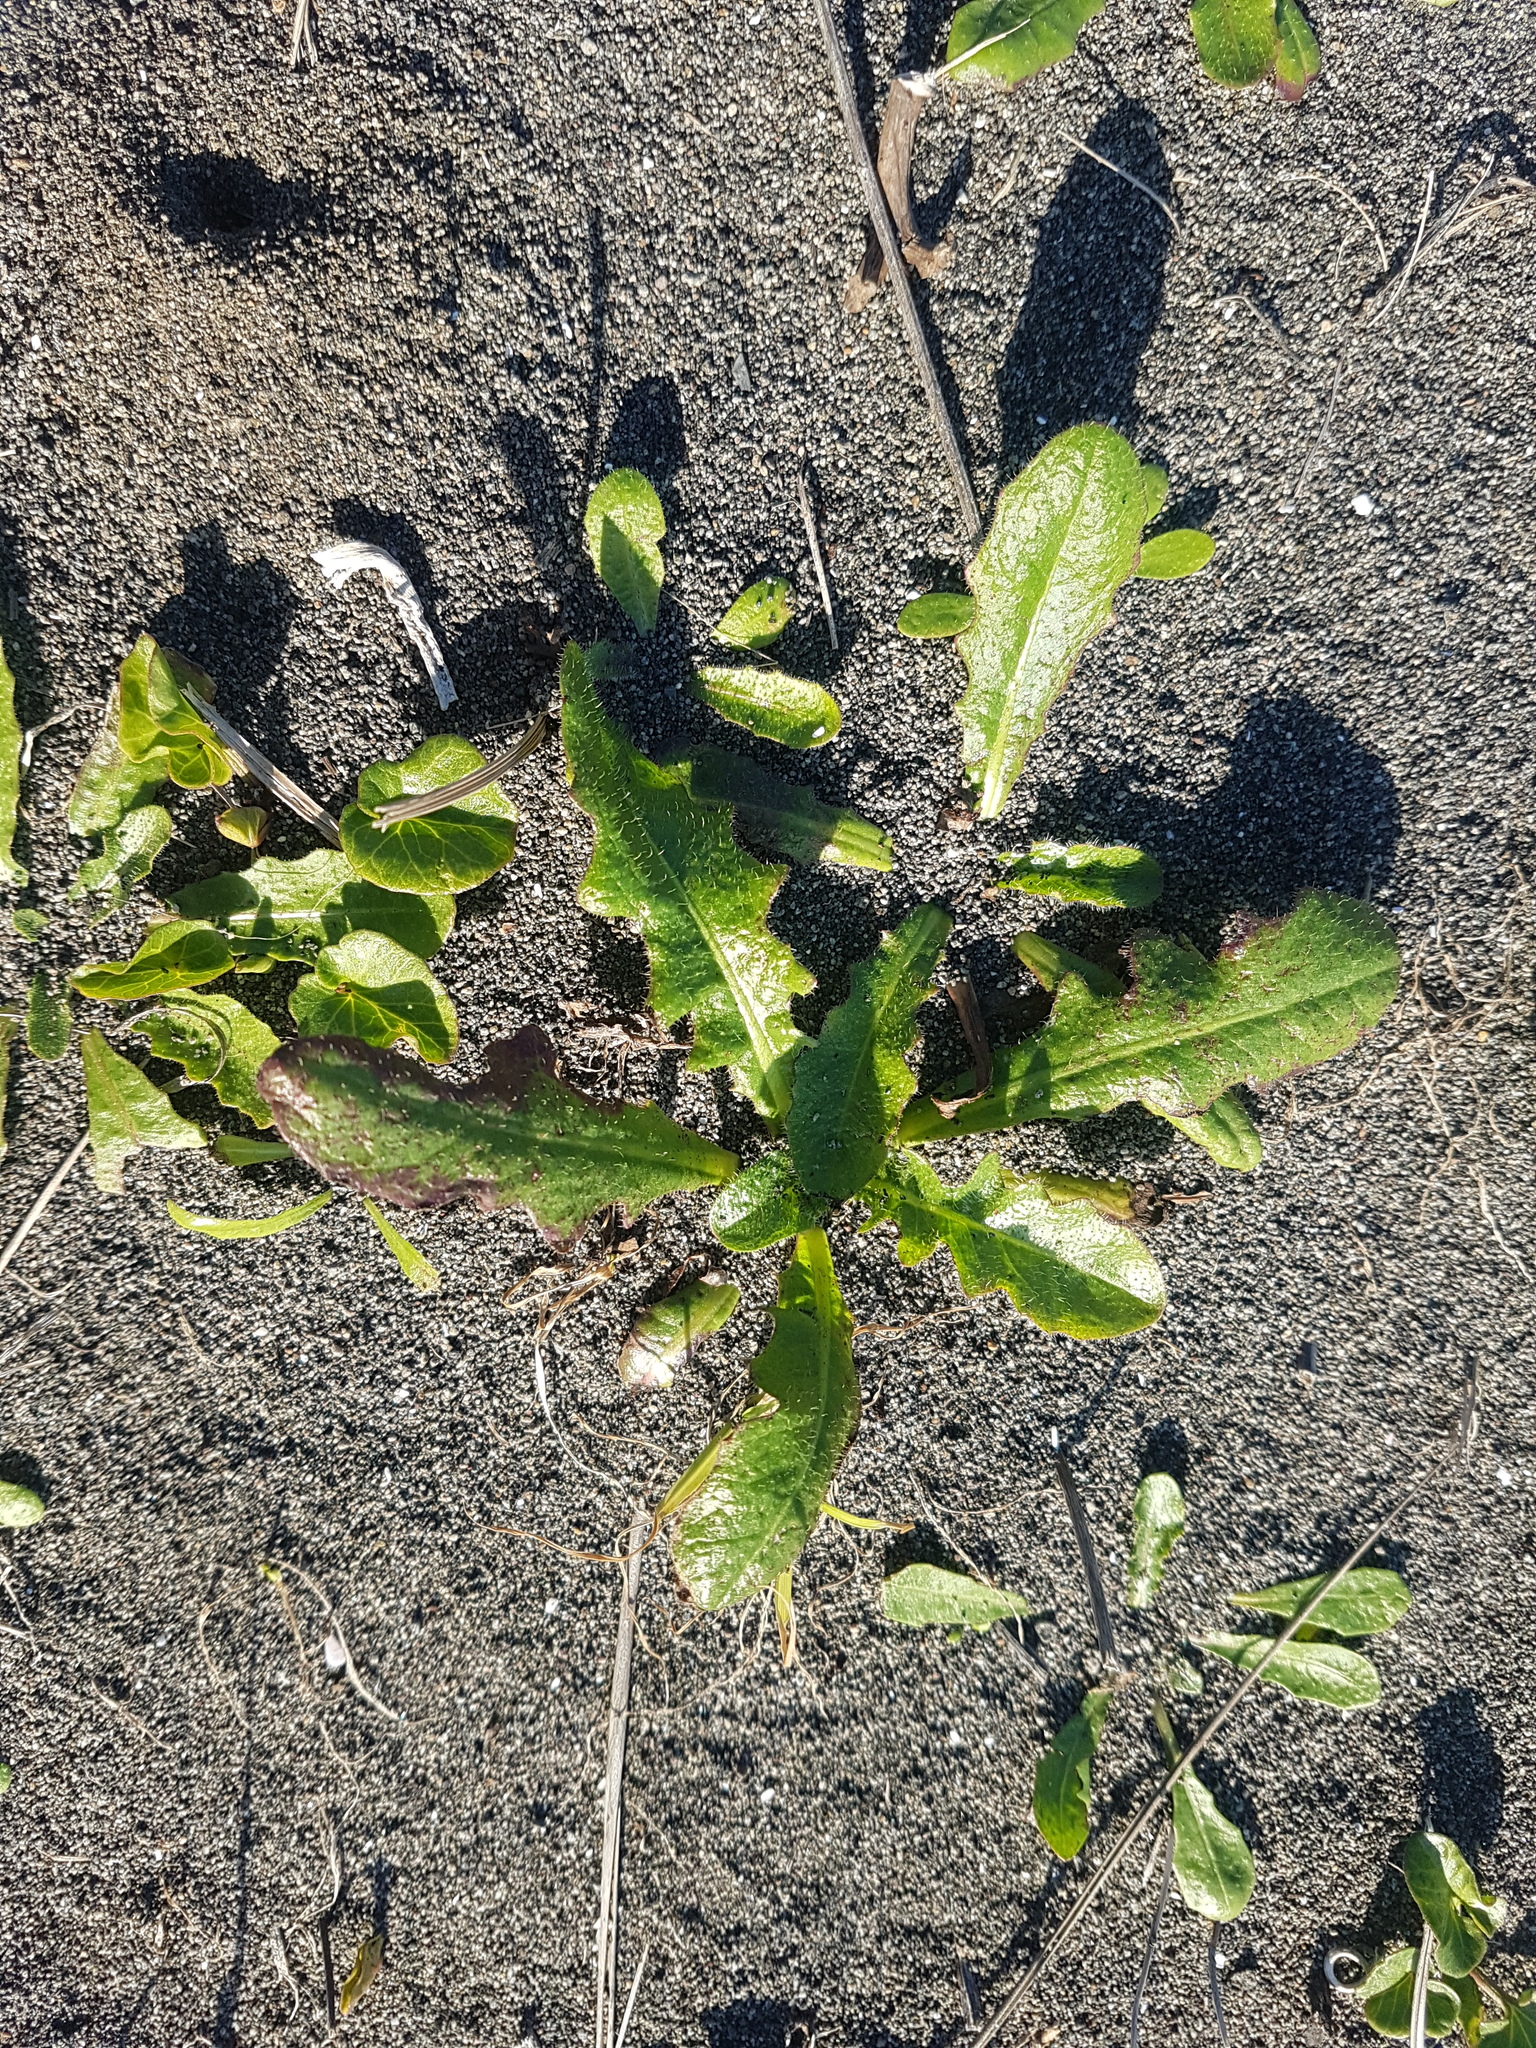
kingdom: Plantae
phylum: Tracheophyta
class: Magnoliopsida
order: Asterales
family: Asteraceae
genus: Hypochaeris
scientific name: Hypochaeris radicata
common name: Flatweed
